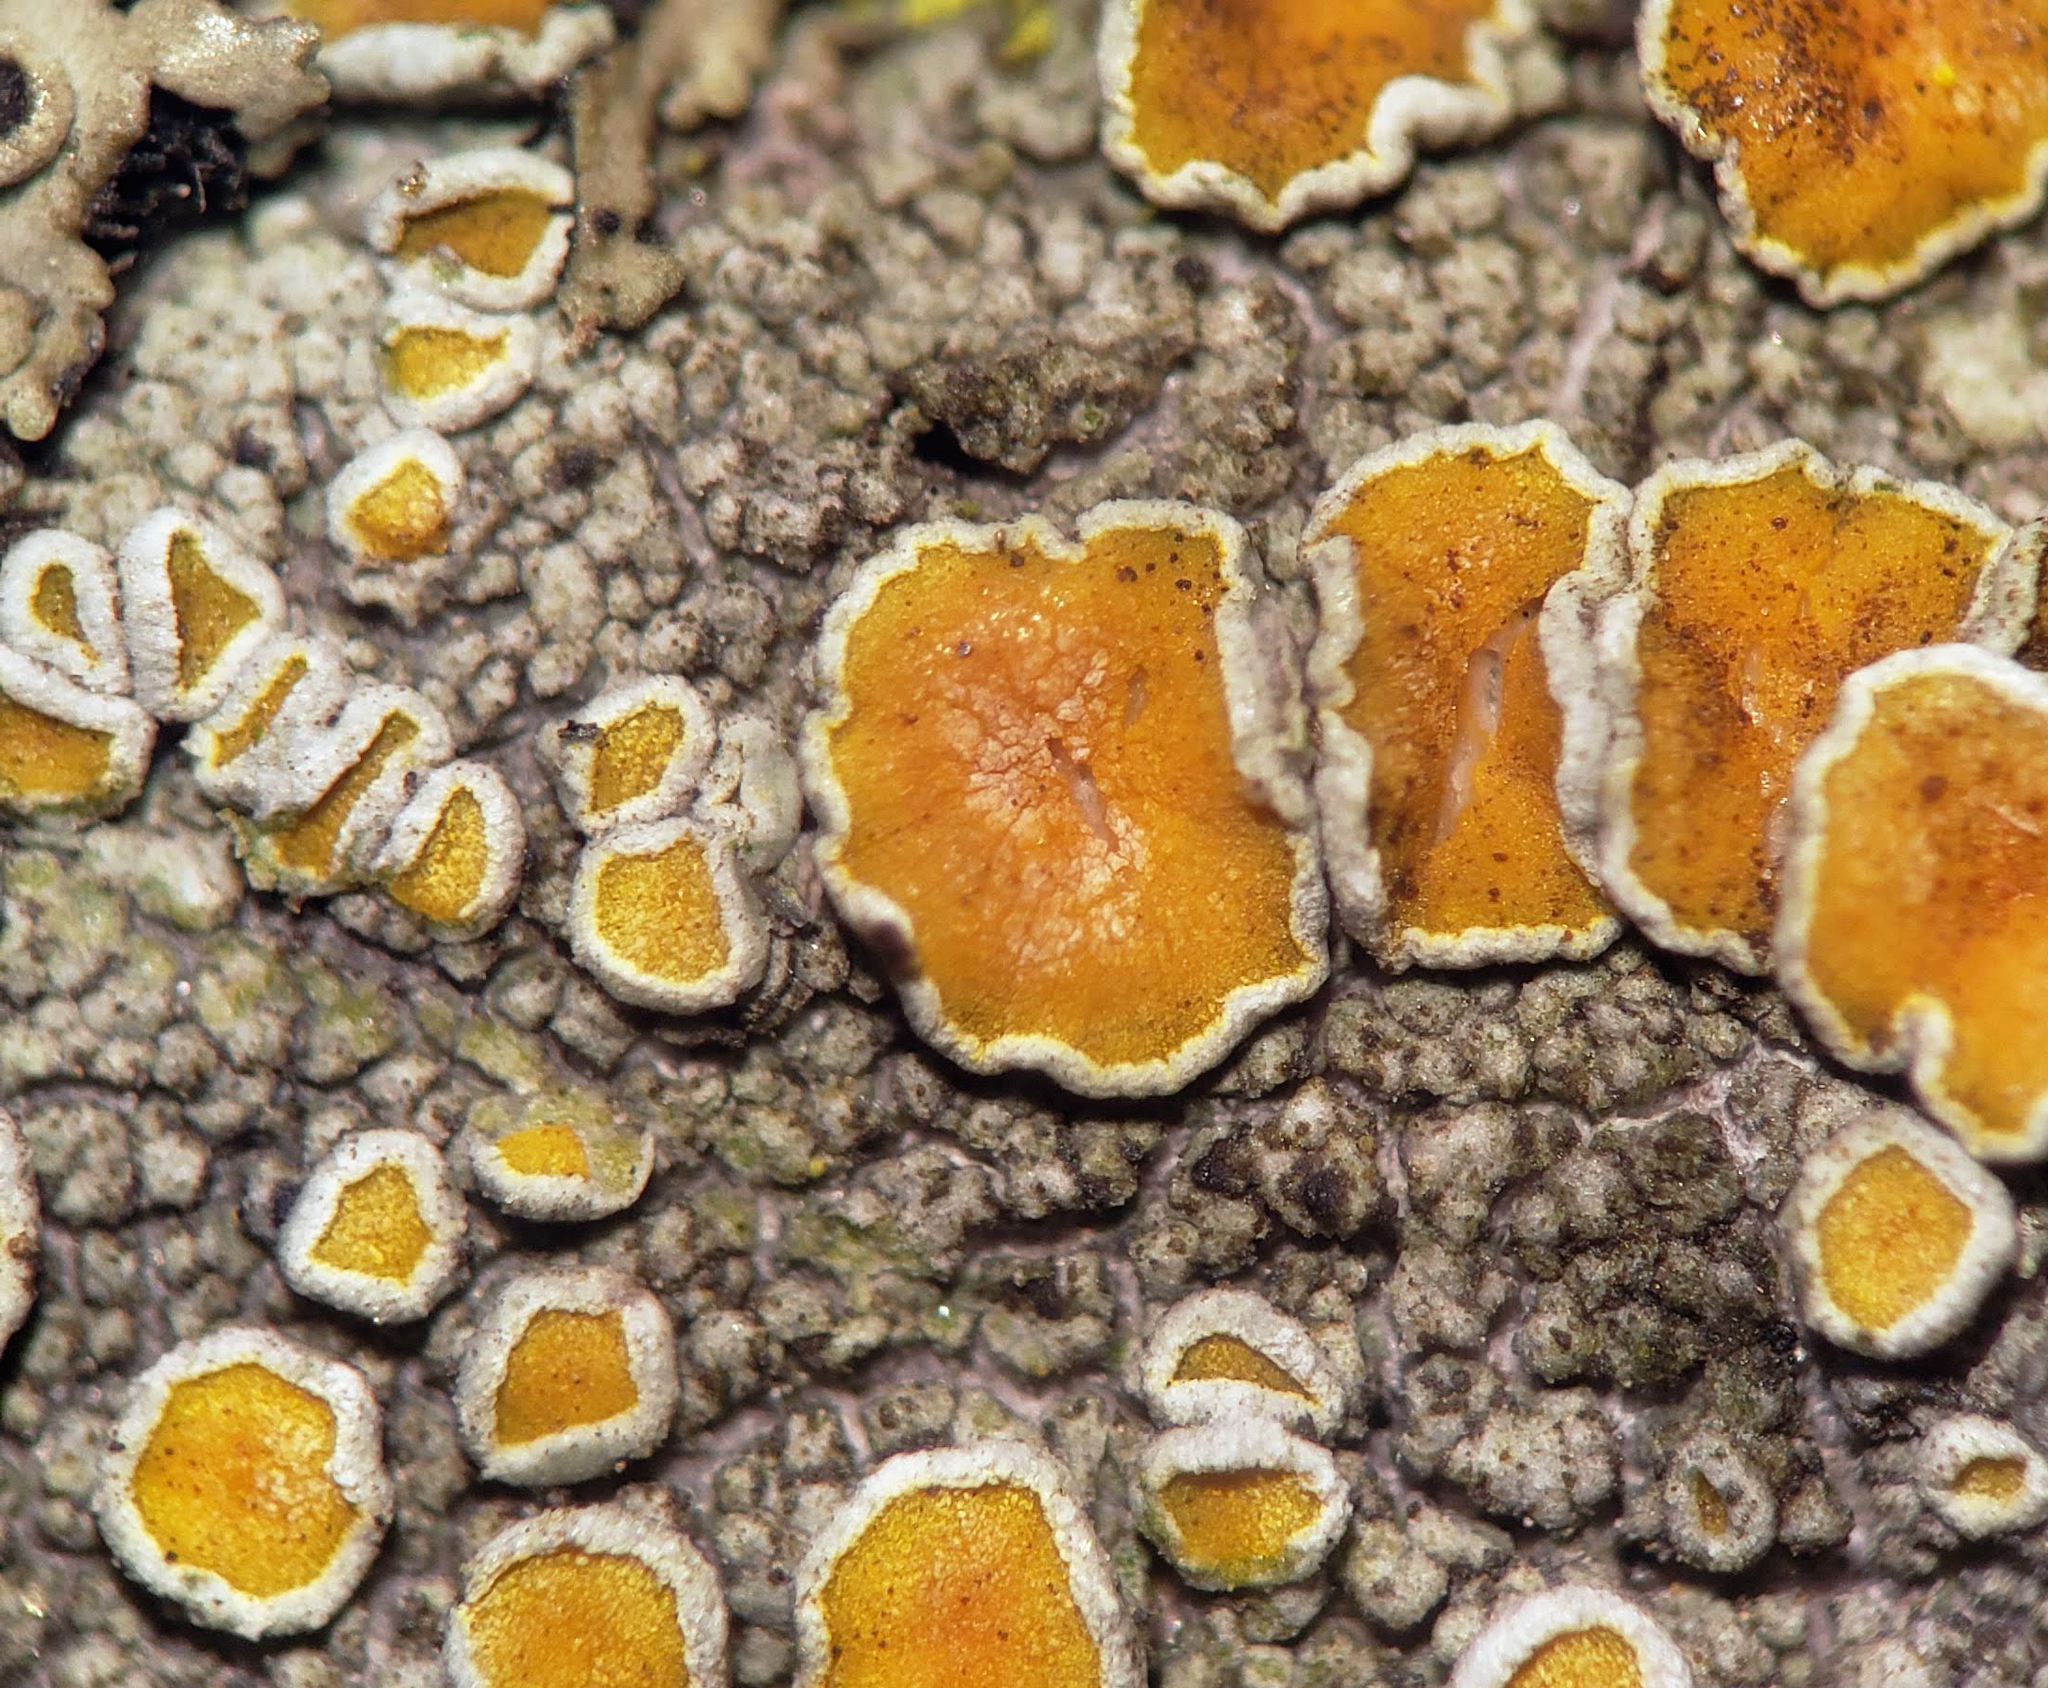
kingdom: Fungi
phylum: Ascomycota
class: Lecanoromycetes
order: Teloschistales
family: Teloschistaceae
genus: Caloplaca
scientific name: Caloplaca cerina
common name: Gray-rimmed firedot lichen
